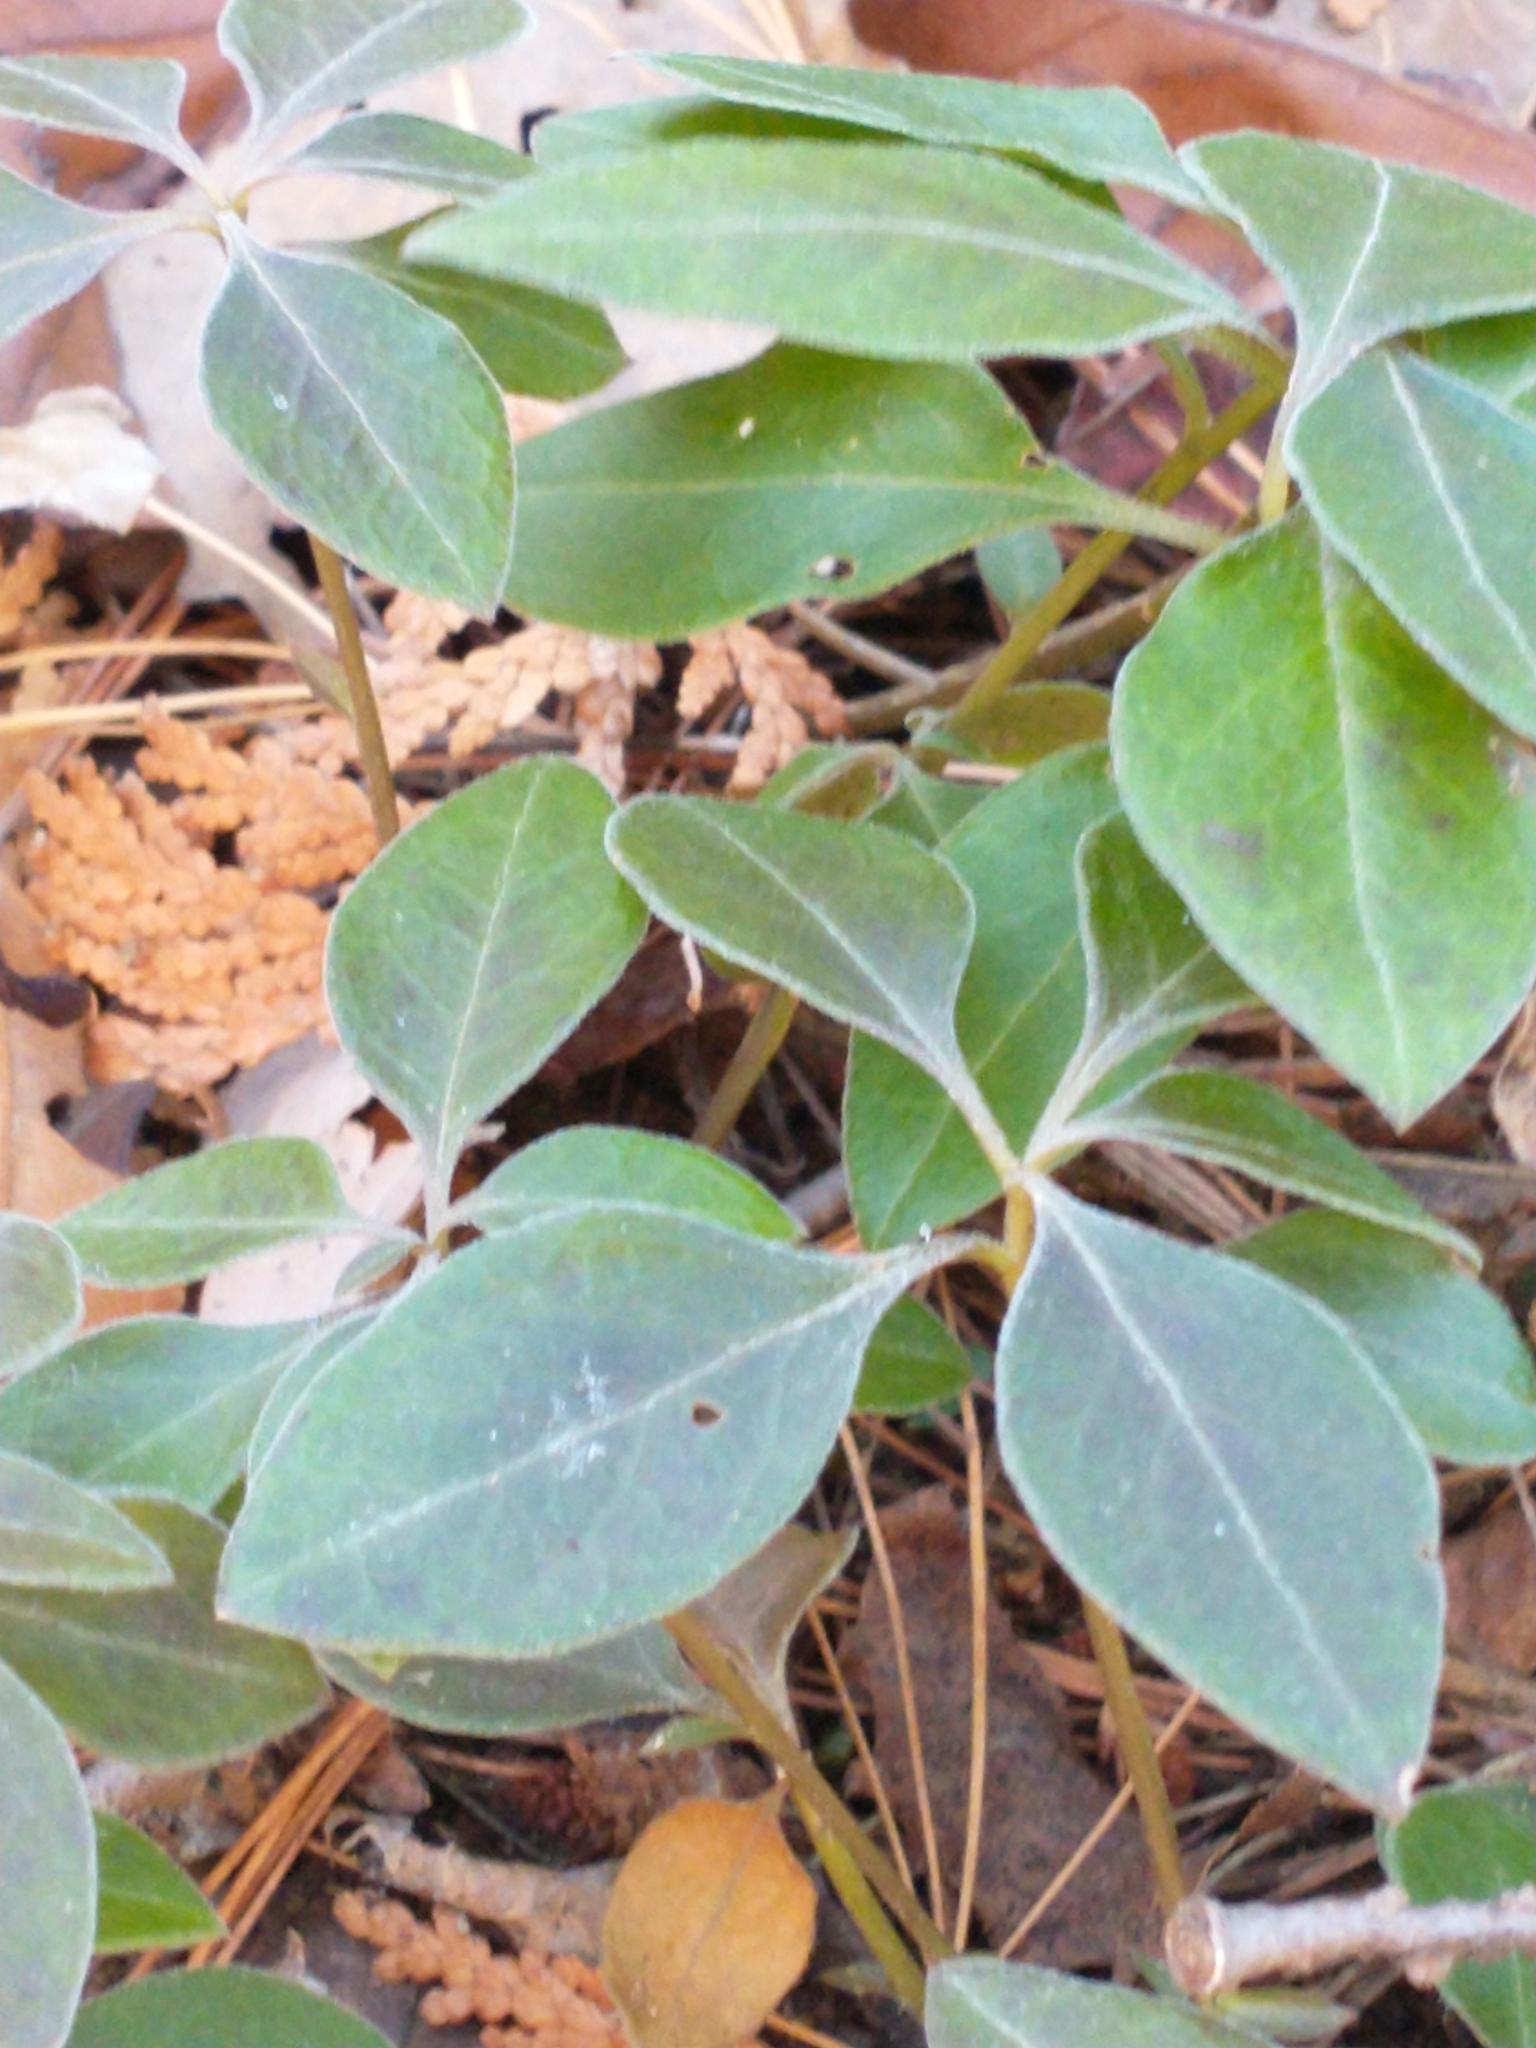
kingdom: Plantae
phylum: Tracheophyta
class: Magnoliopsida
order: Fabales
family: Polygalaceae
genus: Polygaloides
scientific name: Polygaloides paucifolia
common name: Bird-on-the-wing
